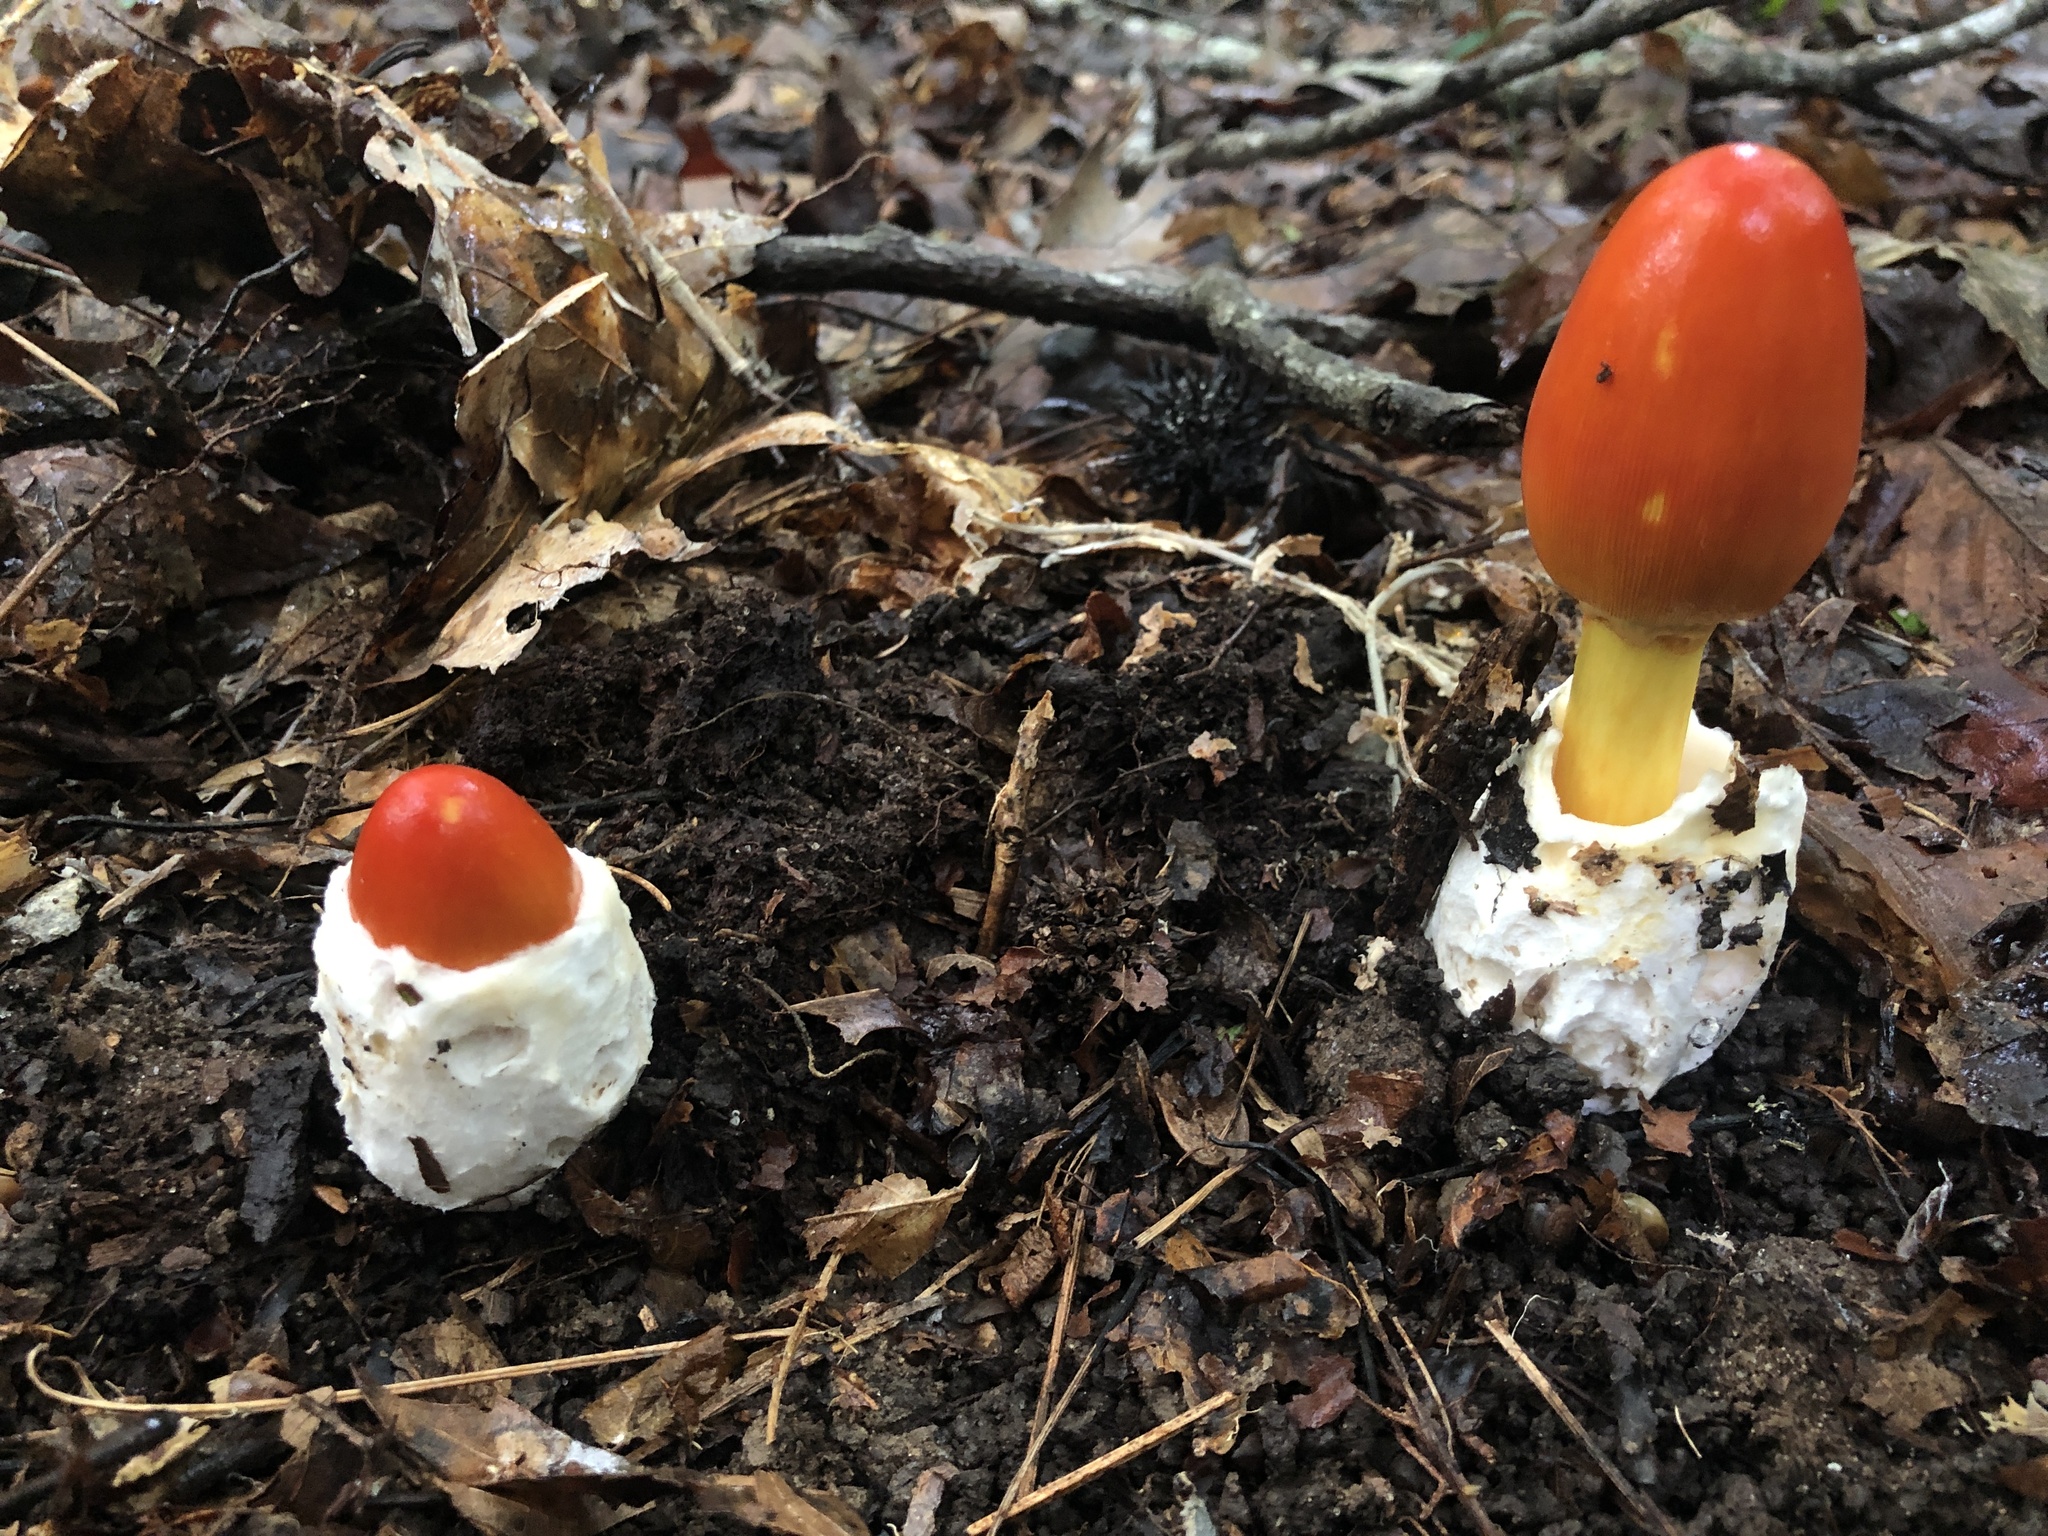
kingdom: Fungi
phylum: Basidiomycota
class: Agaricomycetes
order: Agaricales
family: Amanitaceae
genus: Amanita
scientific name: Amanita jacksonii
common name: Jackson's slender caesar
